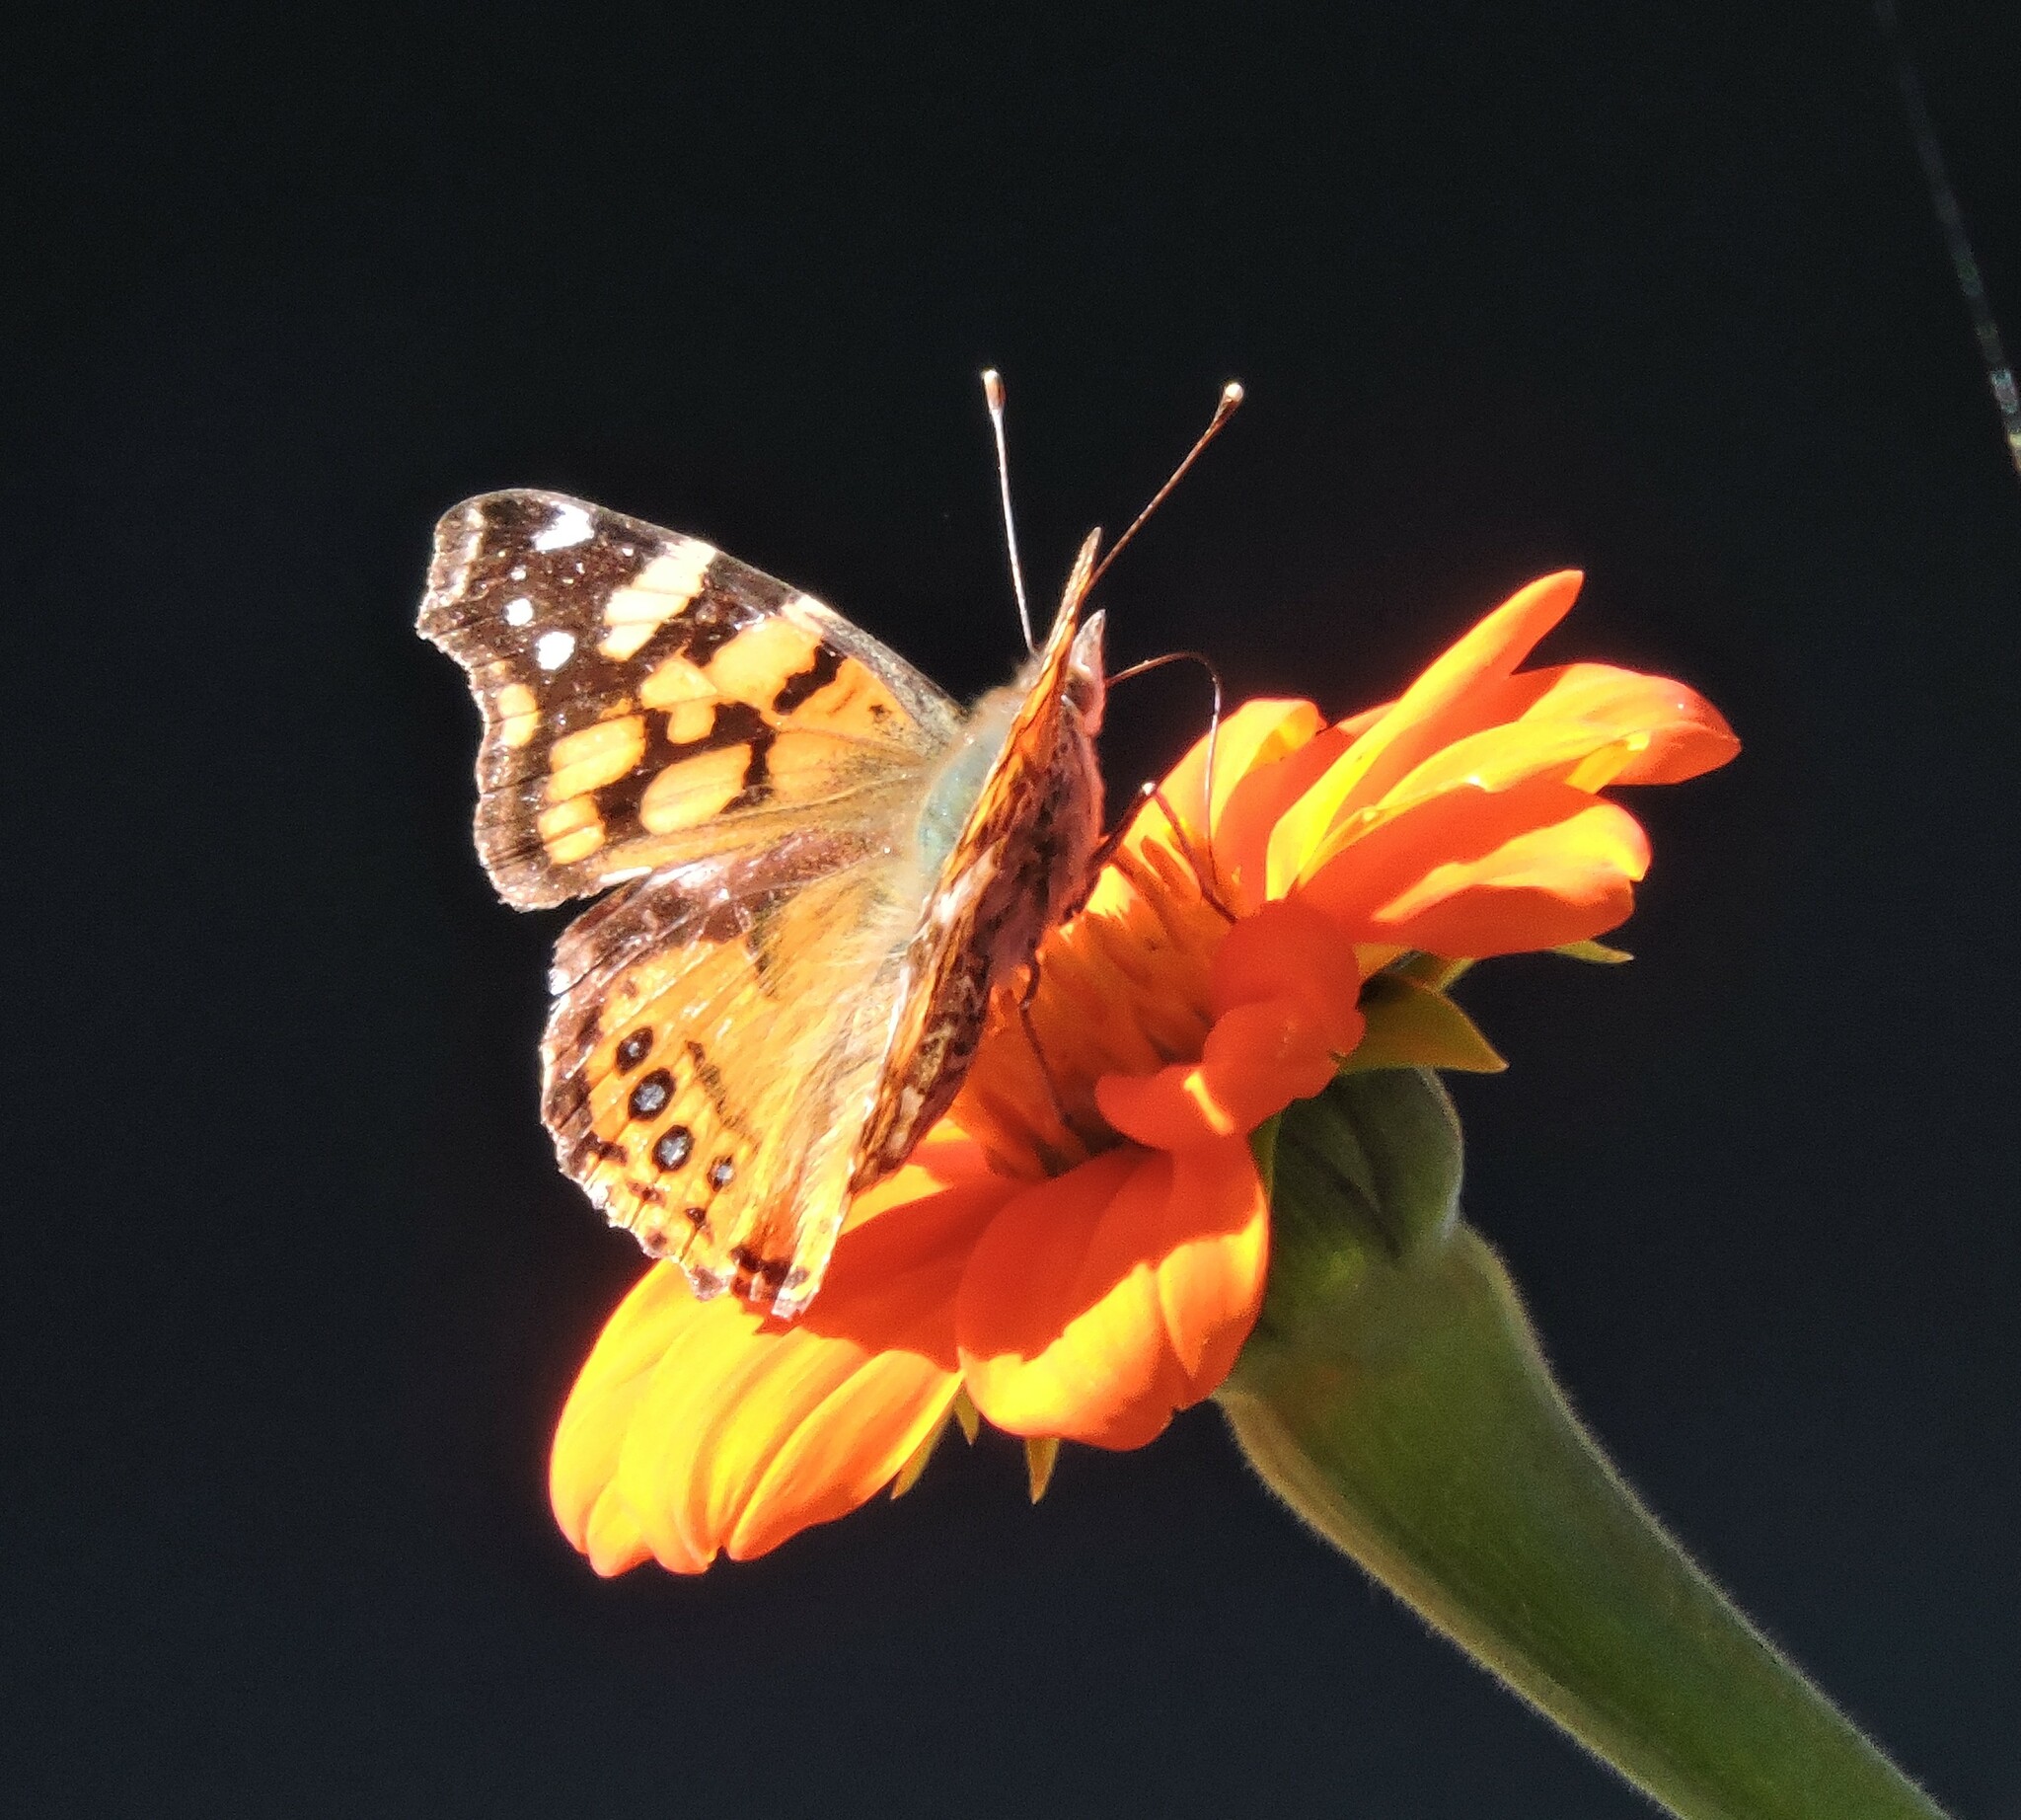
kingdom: Animalia
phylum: Arthropoda
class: Insecta
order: Lepidoptera
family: Nymphalidae
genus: Vanessa
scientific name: Vanessa annabella
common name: West coast lady
